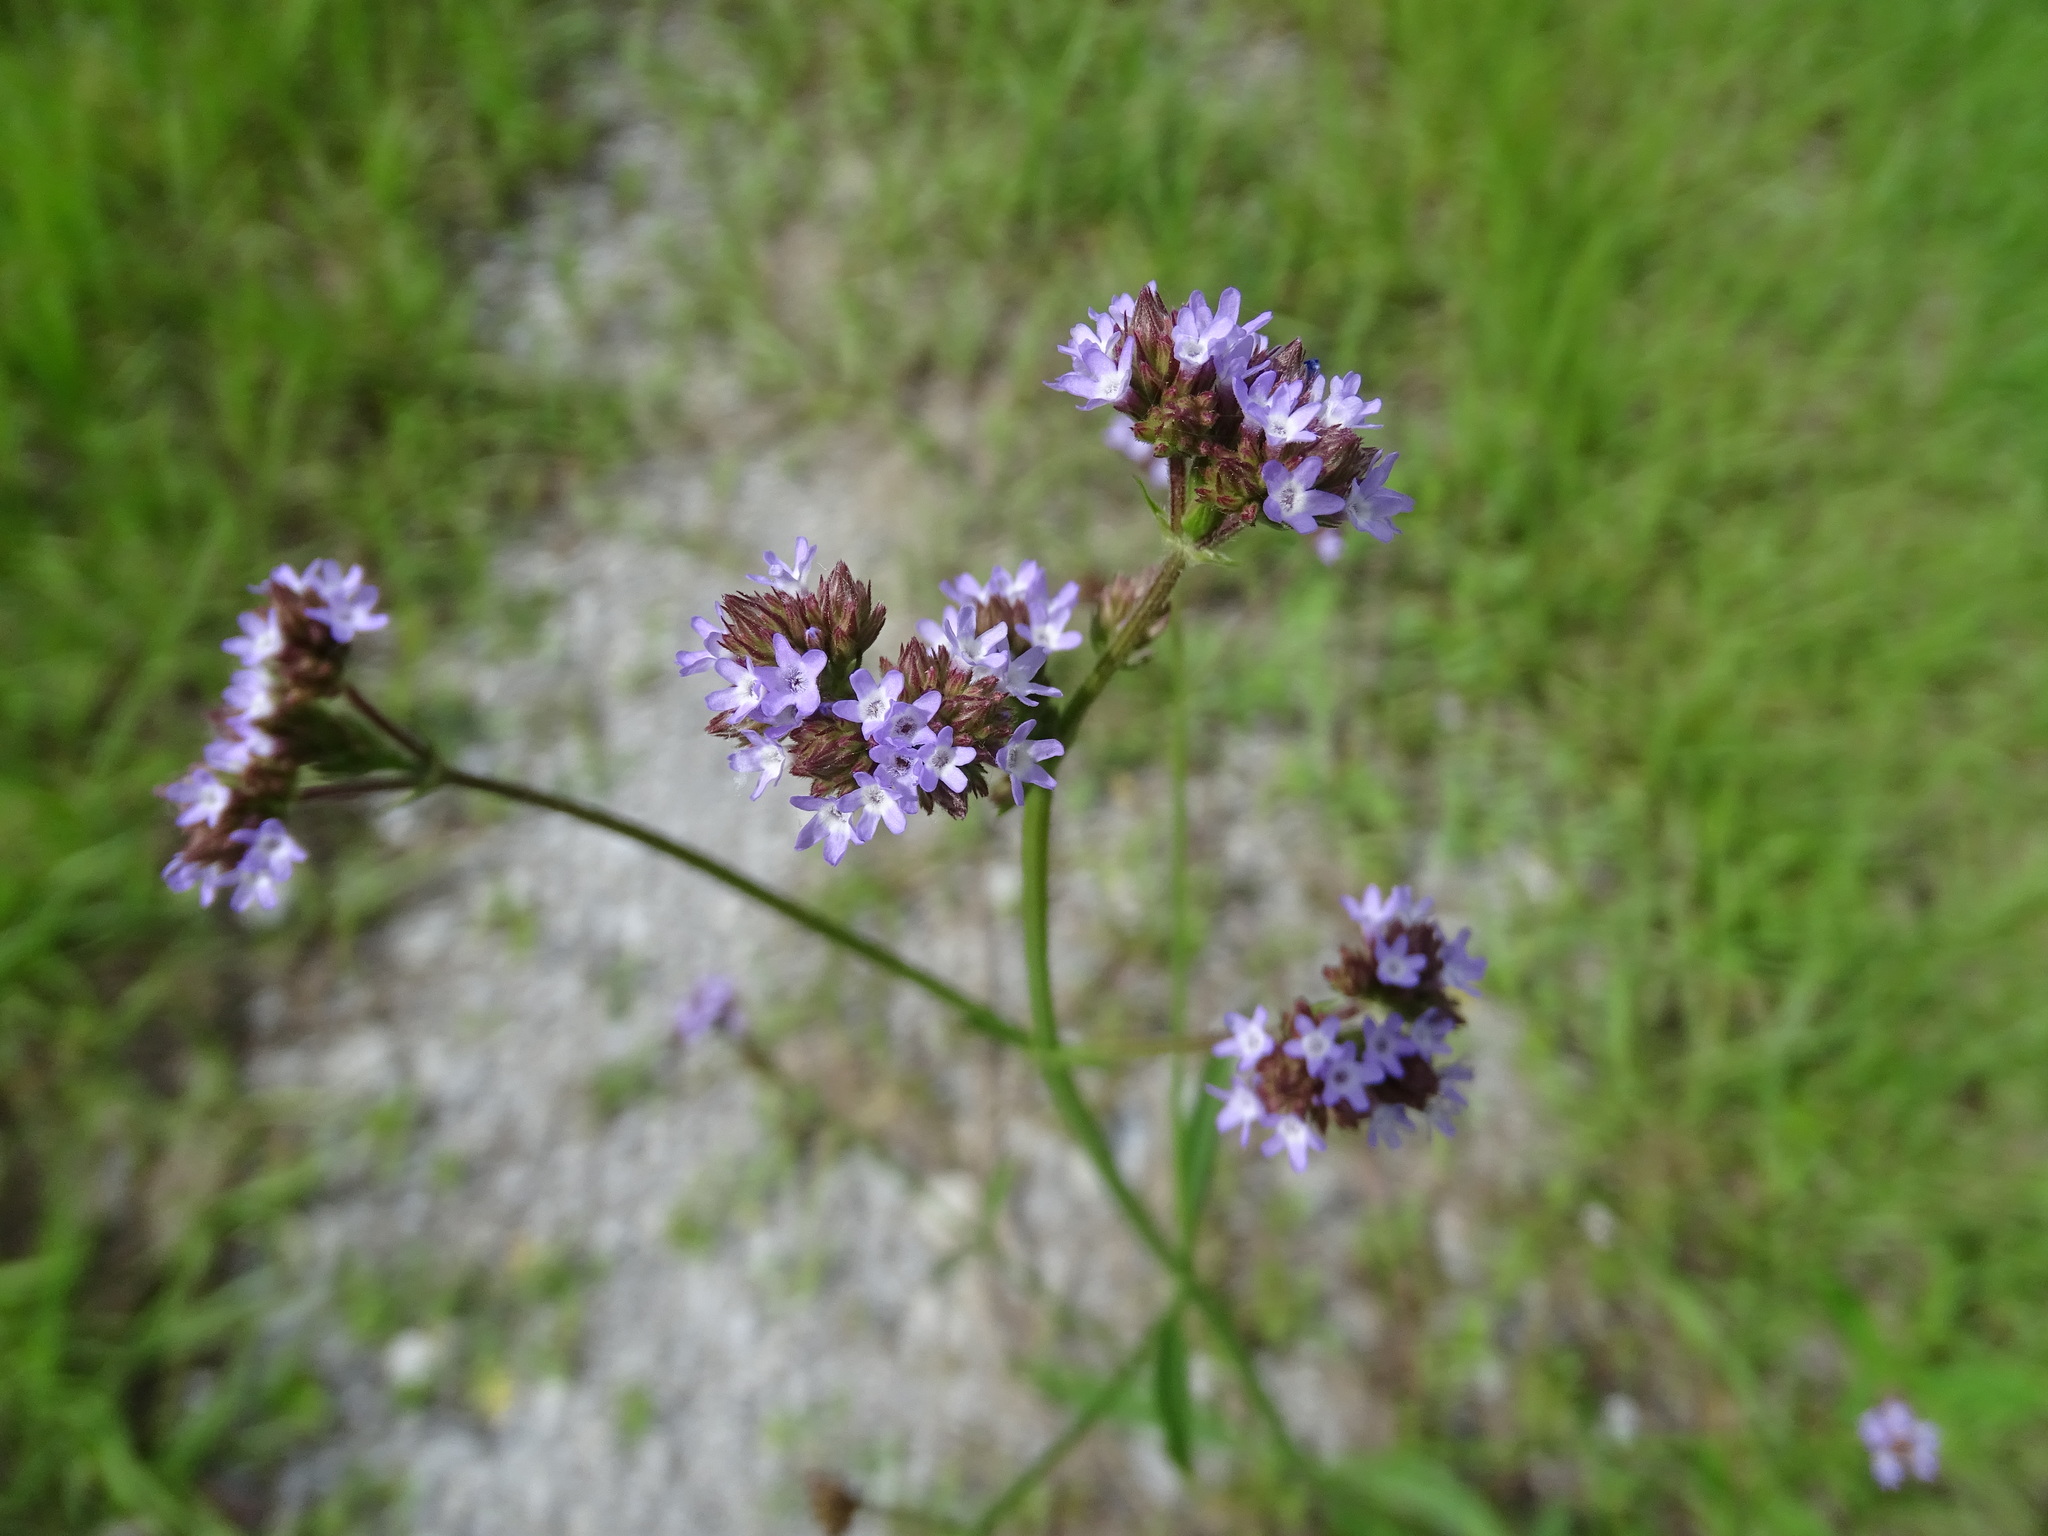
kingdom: Plantae
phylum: Tracheophyta
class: Magnoliopsida
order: Lamiales
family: Verbenaceae
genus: Verbena
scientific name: Verbena brasiliensis
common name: Brazilian vervain
